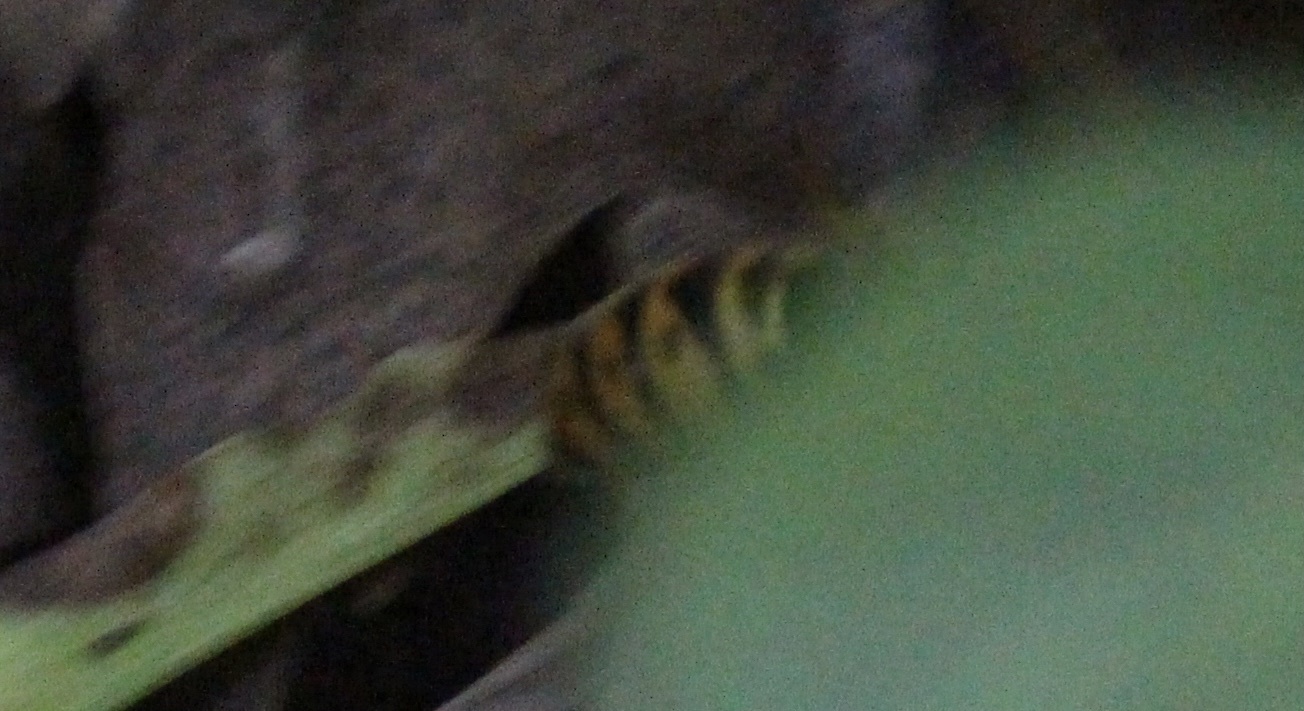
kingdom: Animalia
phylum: Arthropoda
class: Insecta
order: Hymenoptera
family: Vespidae
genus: Vespula
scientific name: Vespula maculifrons
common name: Eastern yellowjacket
